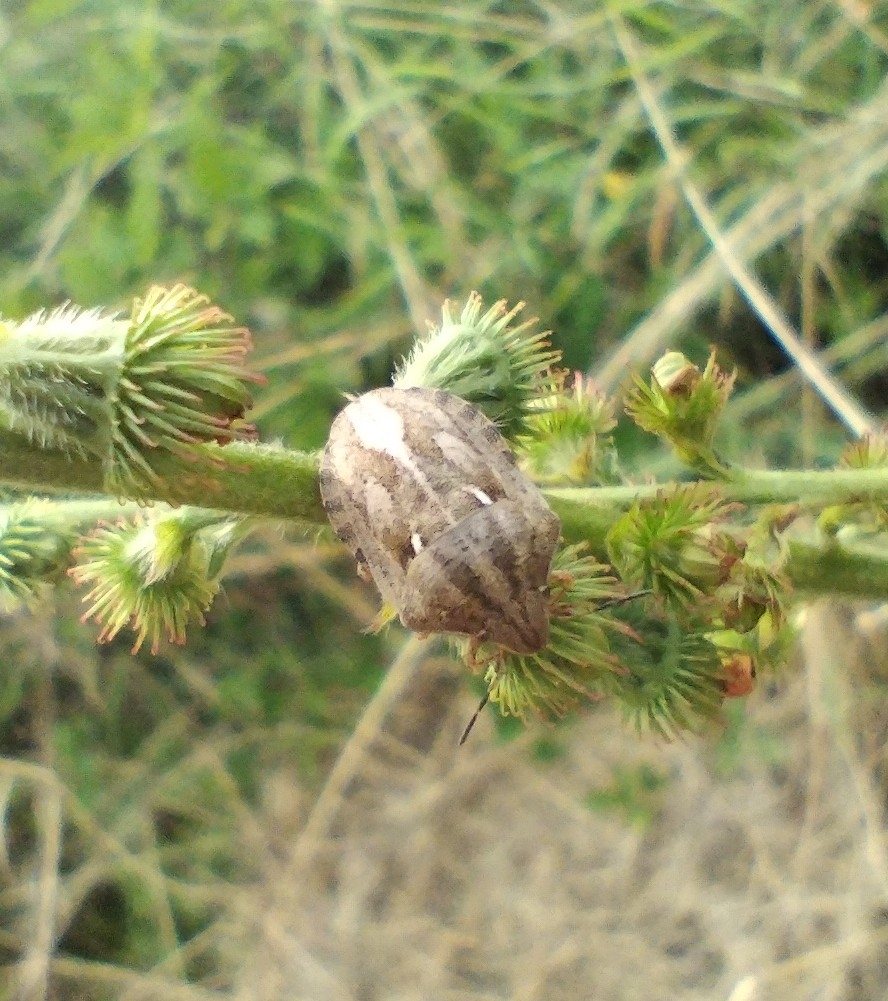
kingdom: Animalia
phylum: Arthropoda
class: Insecta
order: Hemiptera
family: Scutelleridae
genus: Eurygaster
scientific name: Eurygaster maura
